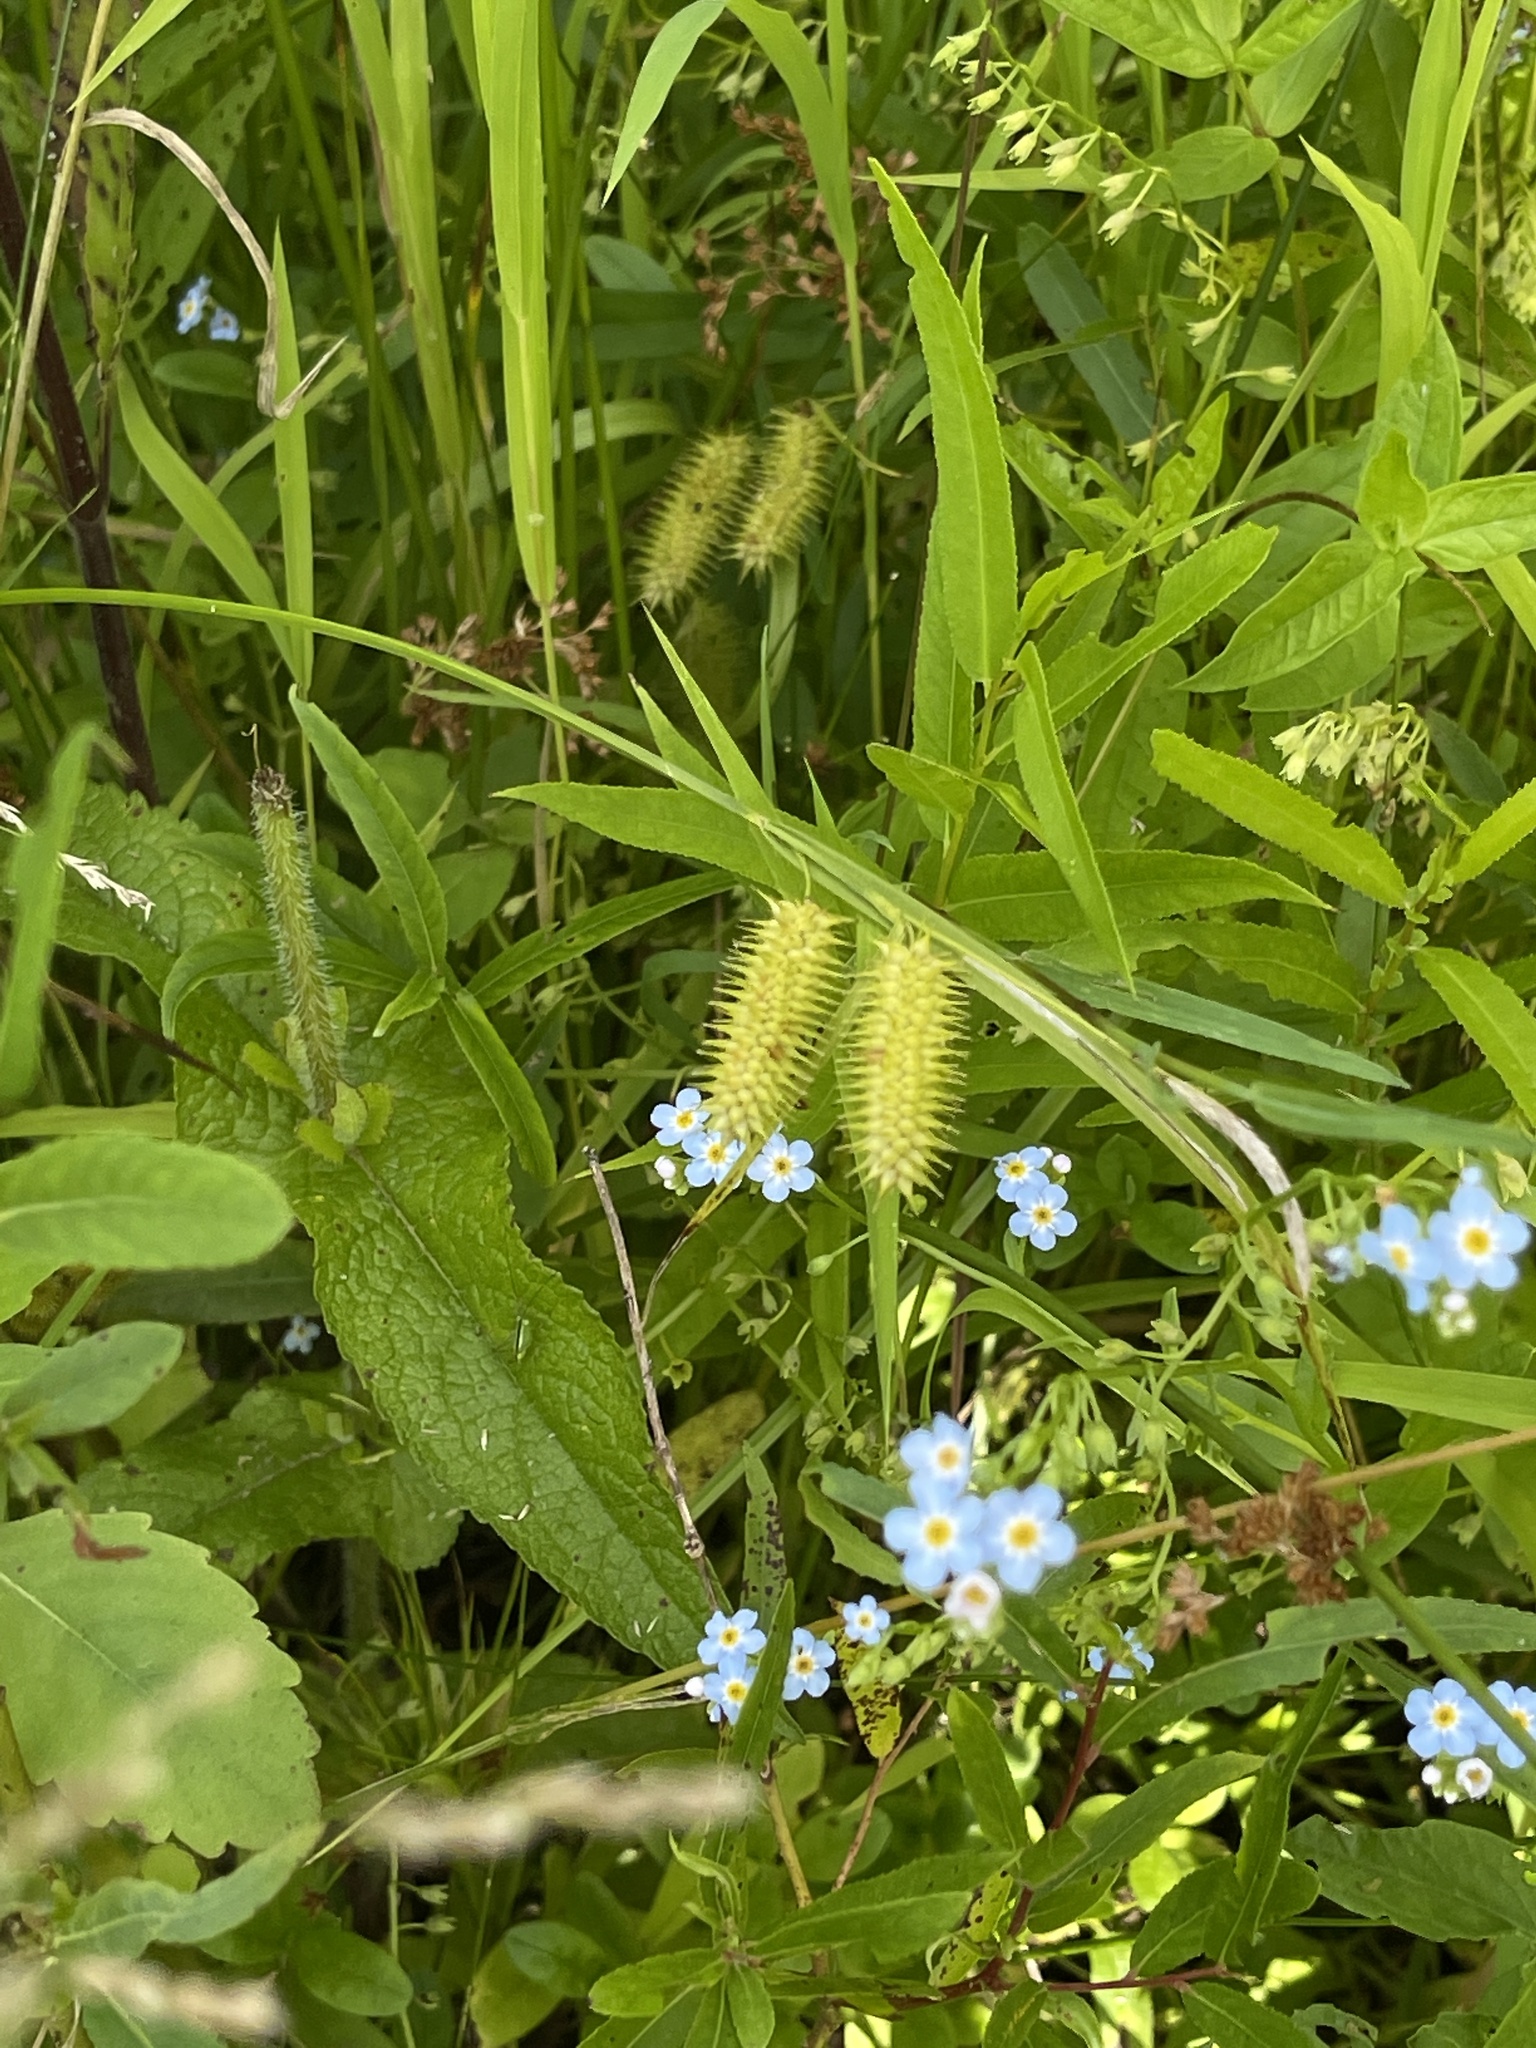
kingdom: Plantae
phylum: Tracheophyta
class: Liliopsida
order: Poales
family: Cyperaceae
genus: Carex
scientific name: Carex hystericina
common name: Bottlebrush sedge
